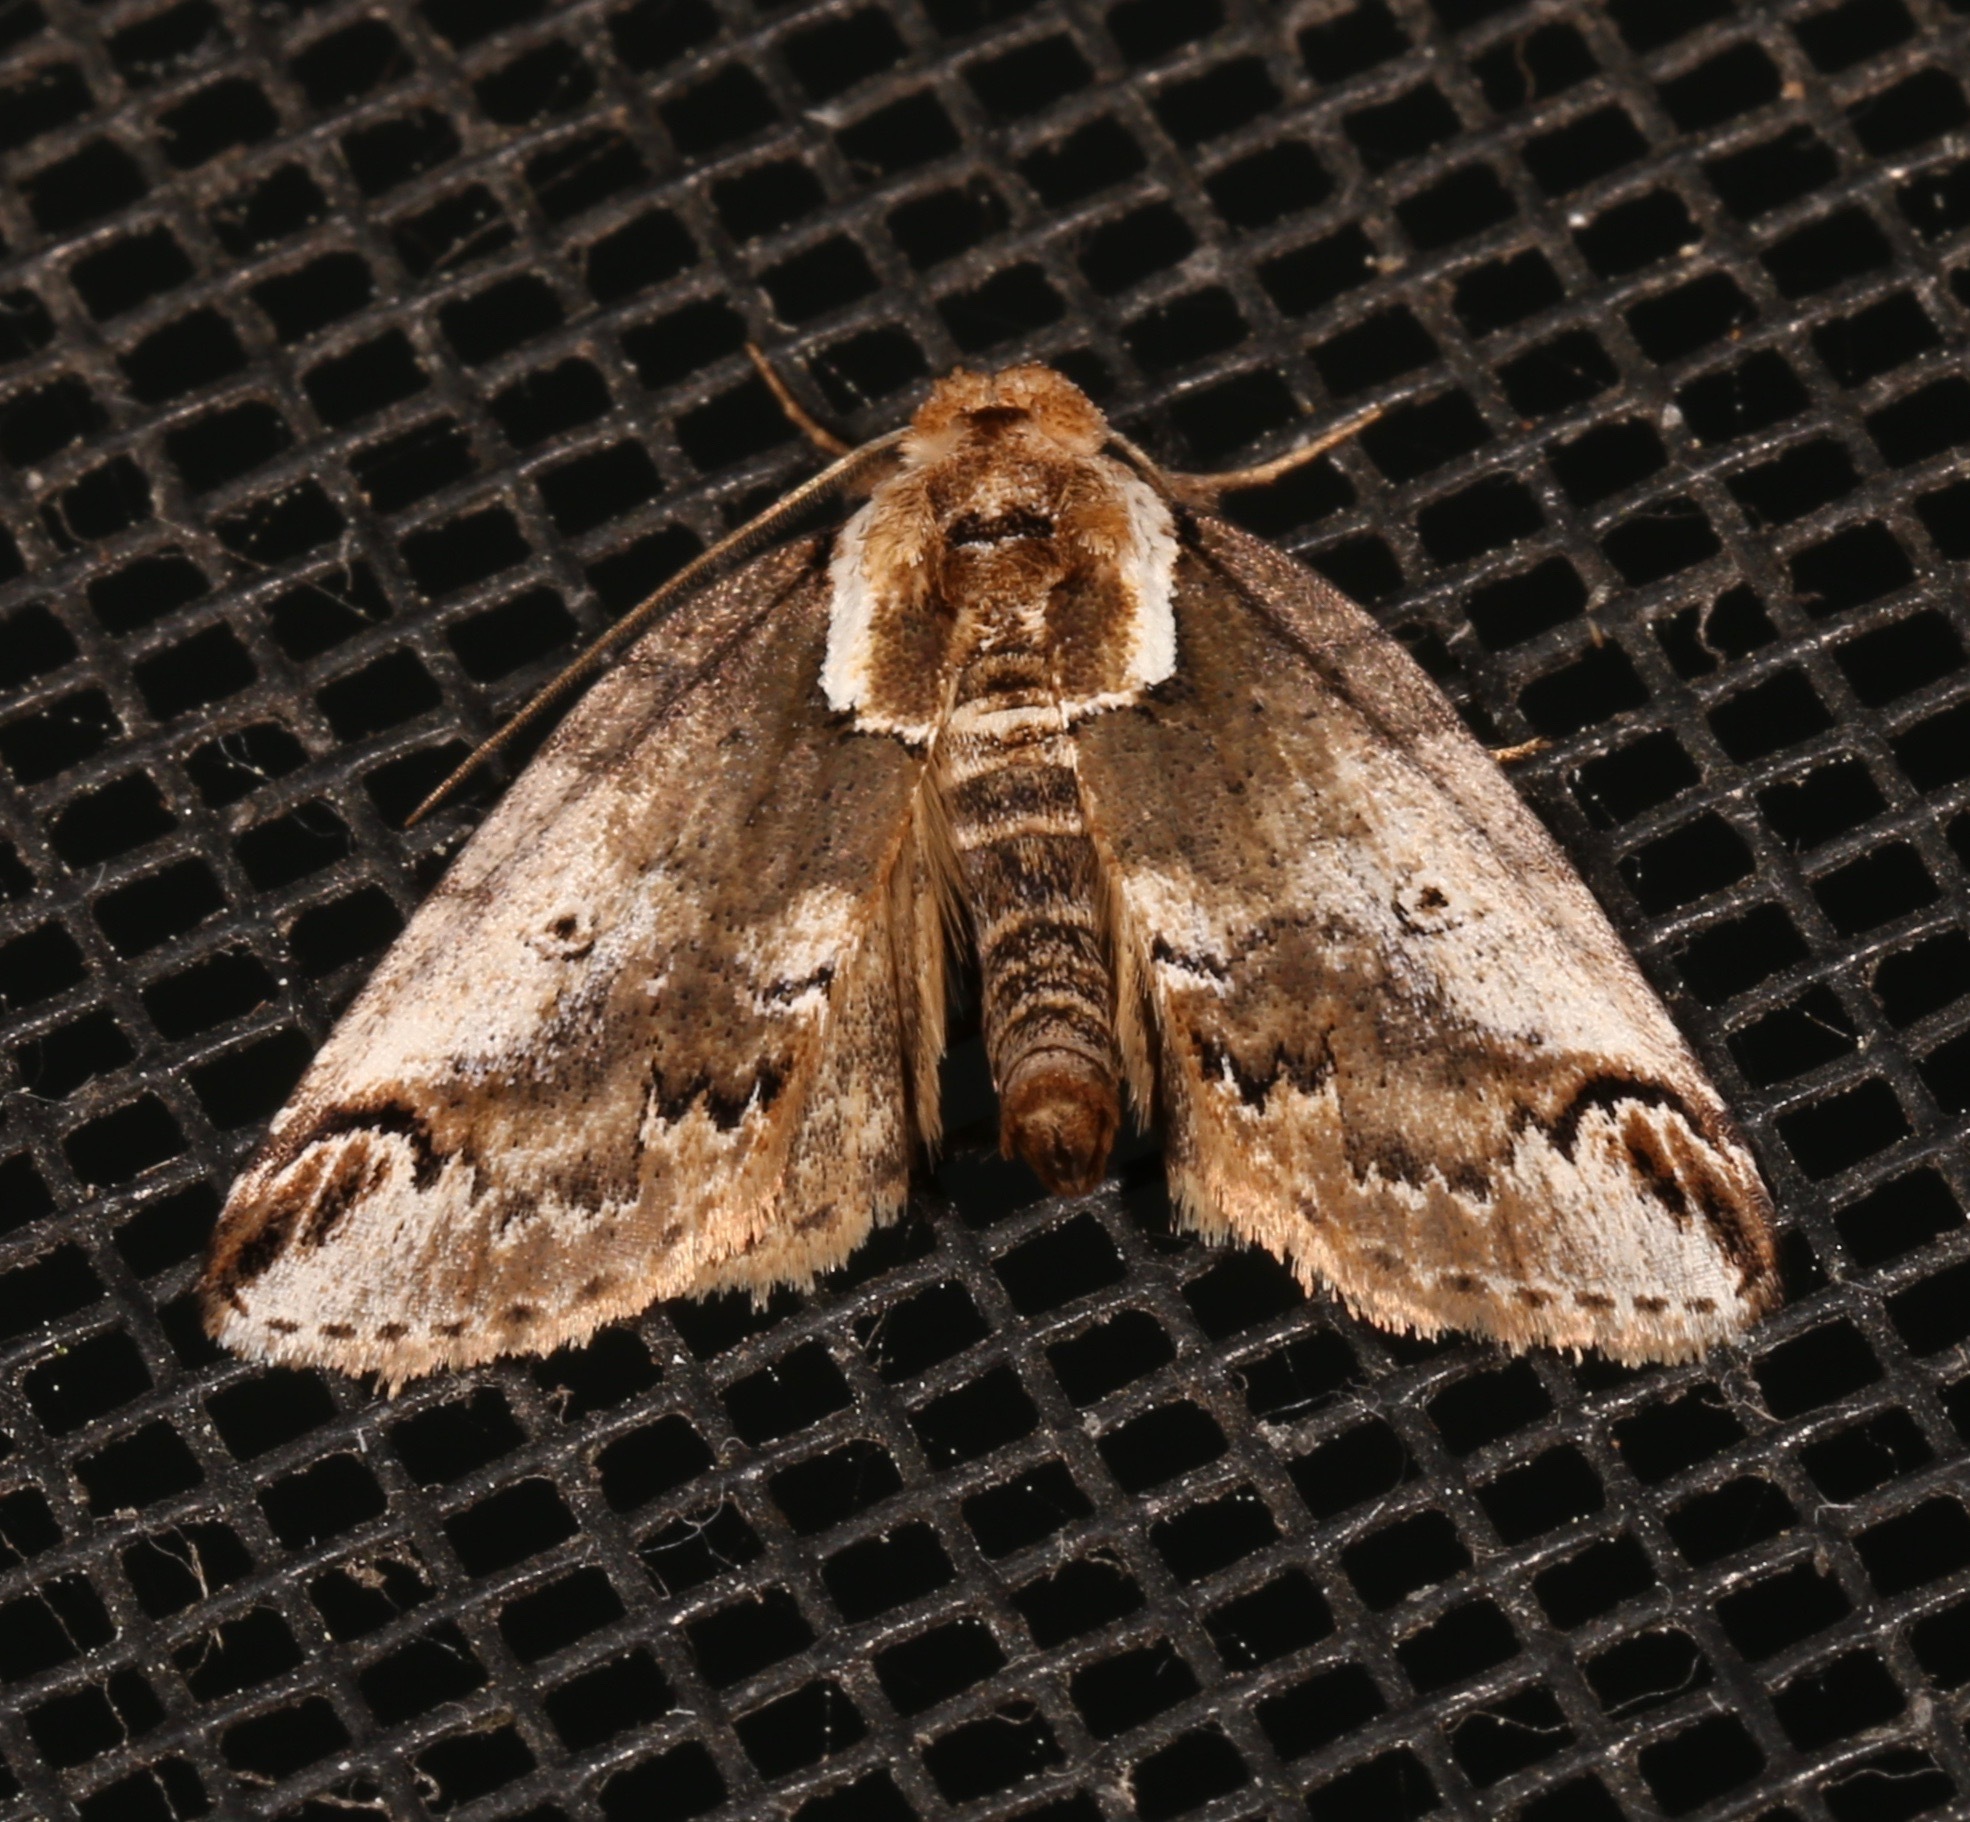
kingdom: Animalia
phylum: Arthropoda
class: Insecta
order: Lepidoptera
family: Nolidae
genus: Baileya
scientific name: Baileya ophthalmica
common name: Eyed baileya moth
